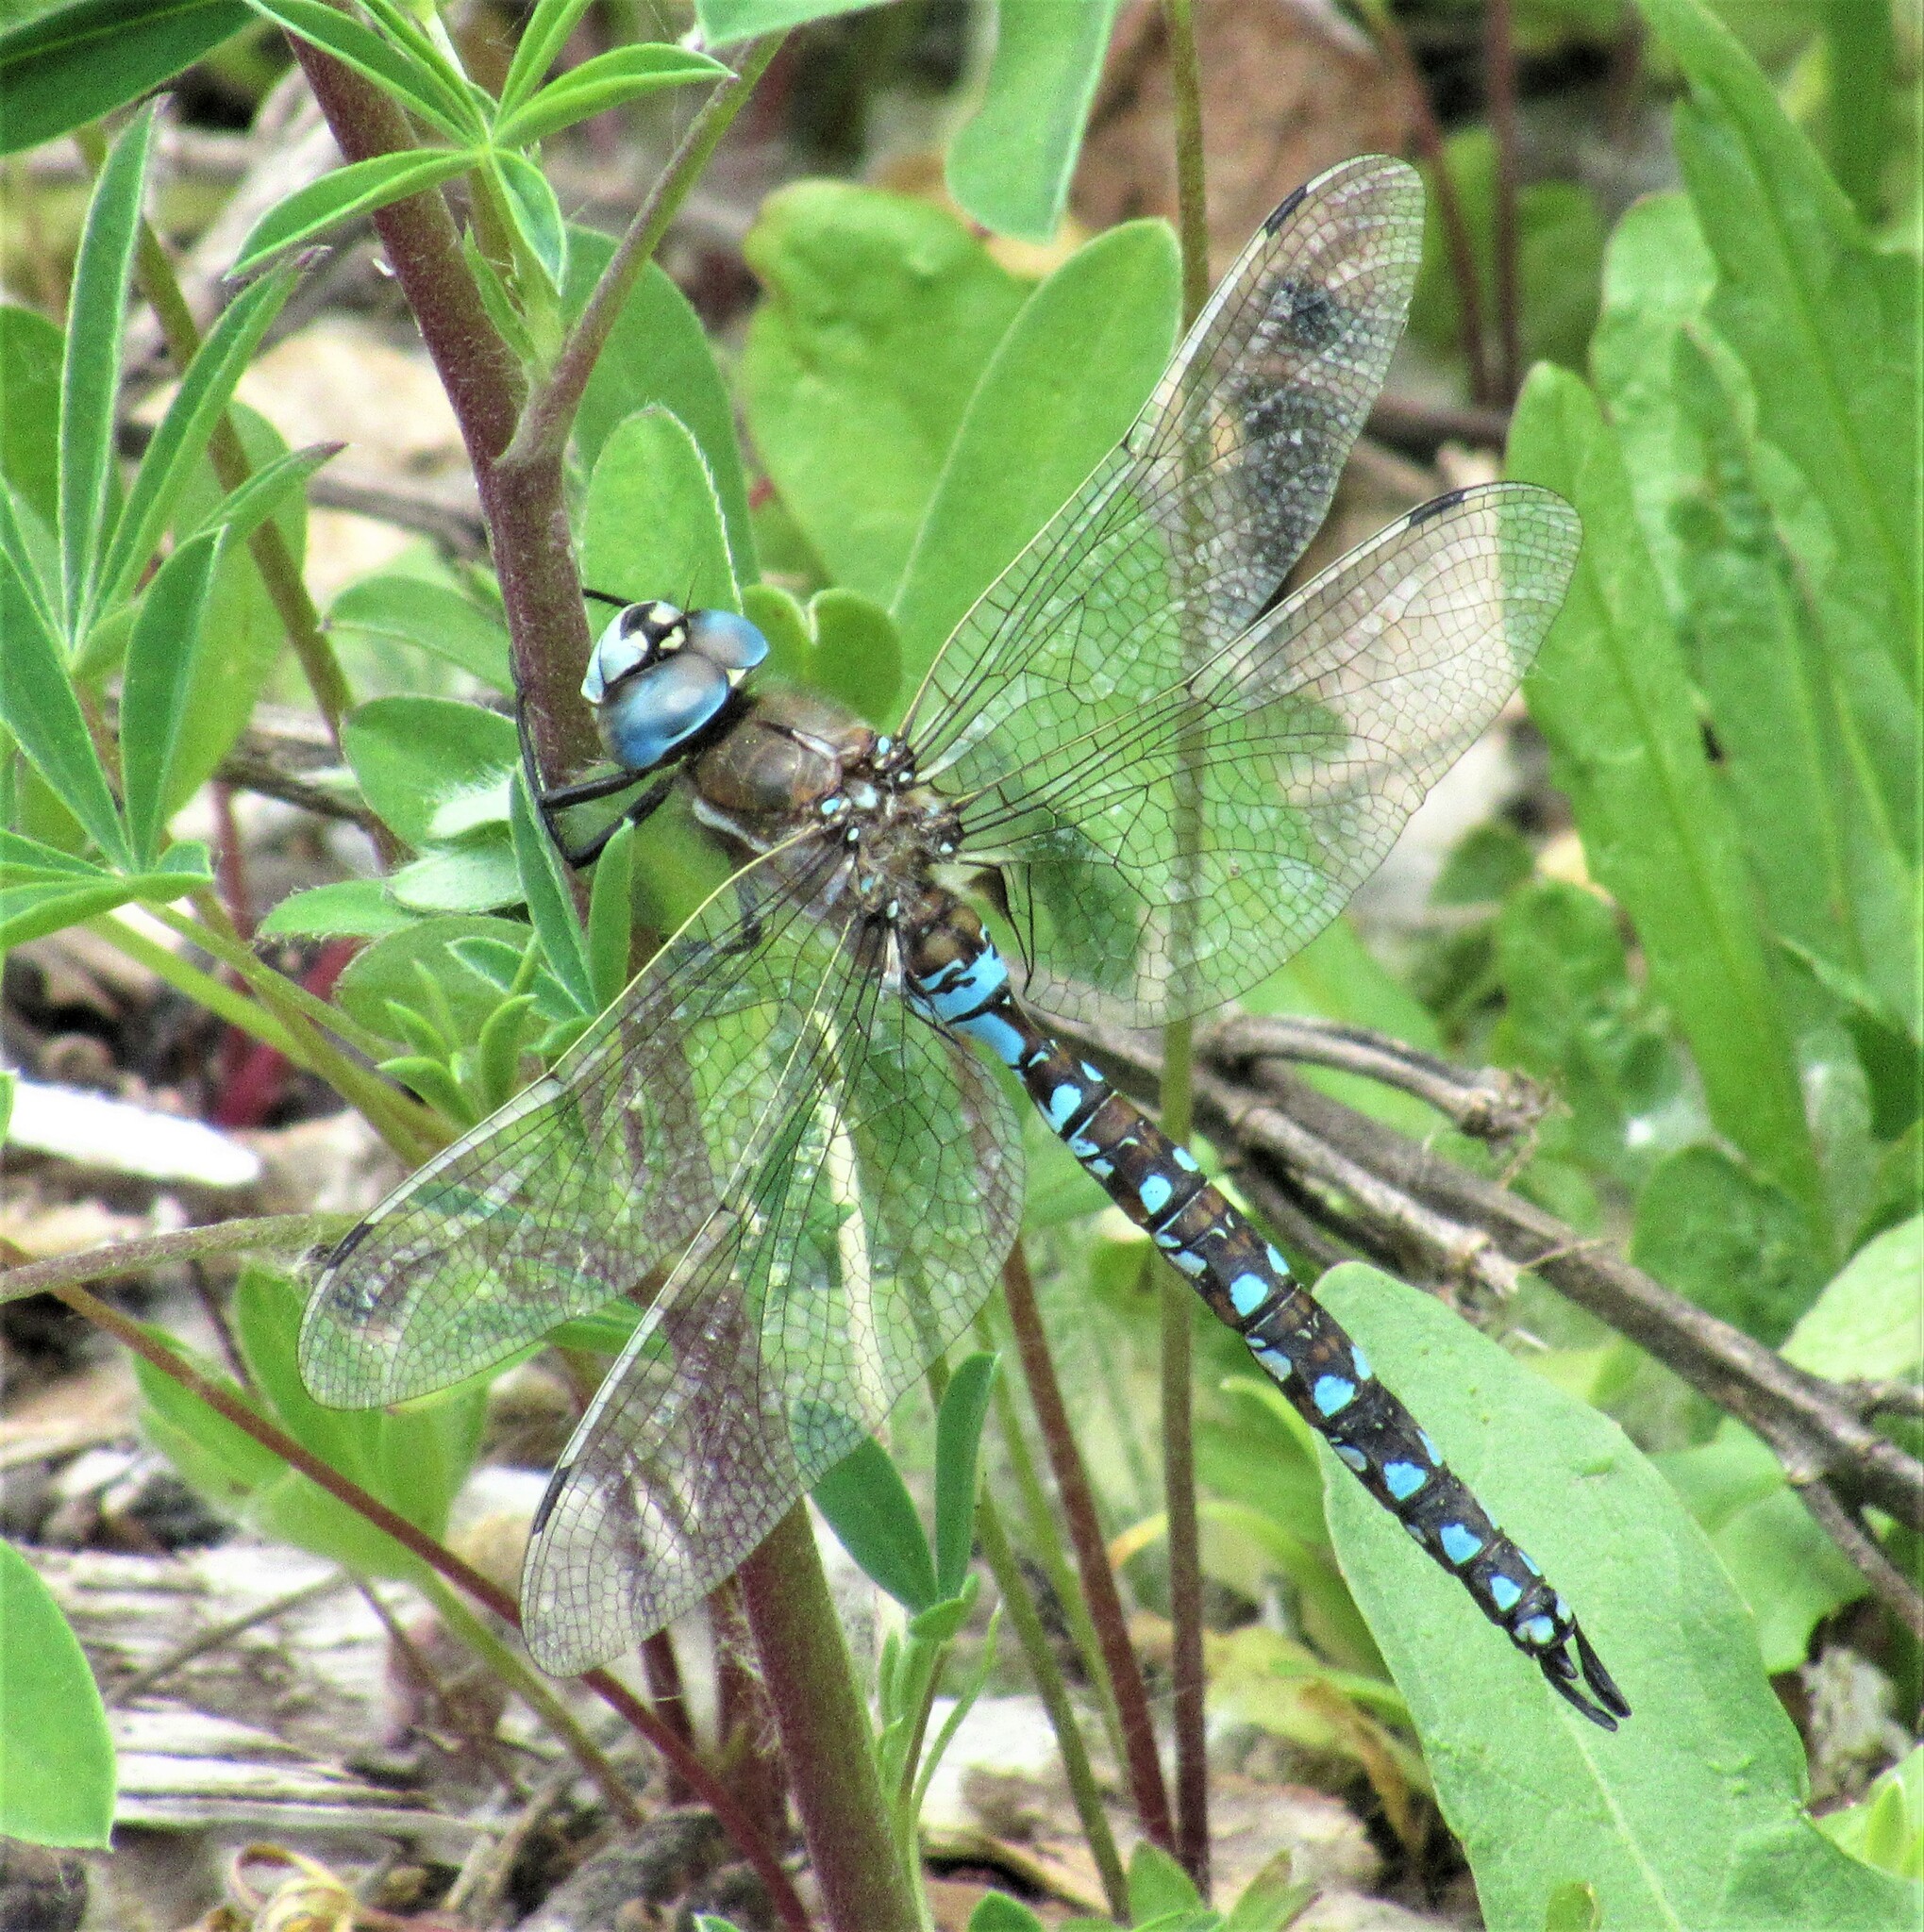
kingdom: Animalia
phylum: Arthropoda
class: Insecta
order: Odonata
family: Aeshnidae
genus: Rhionaeschna
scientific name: Rhionaeschna californica
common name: California darner
